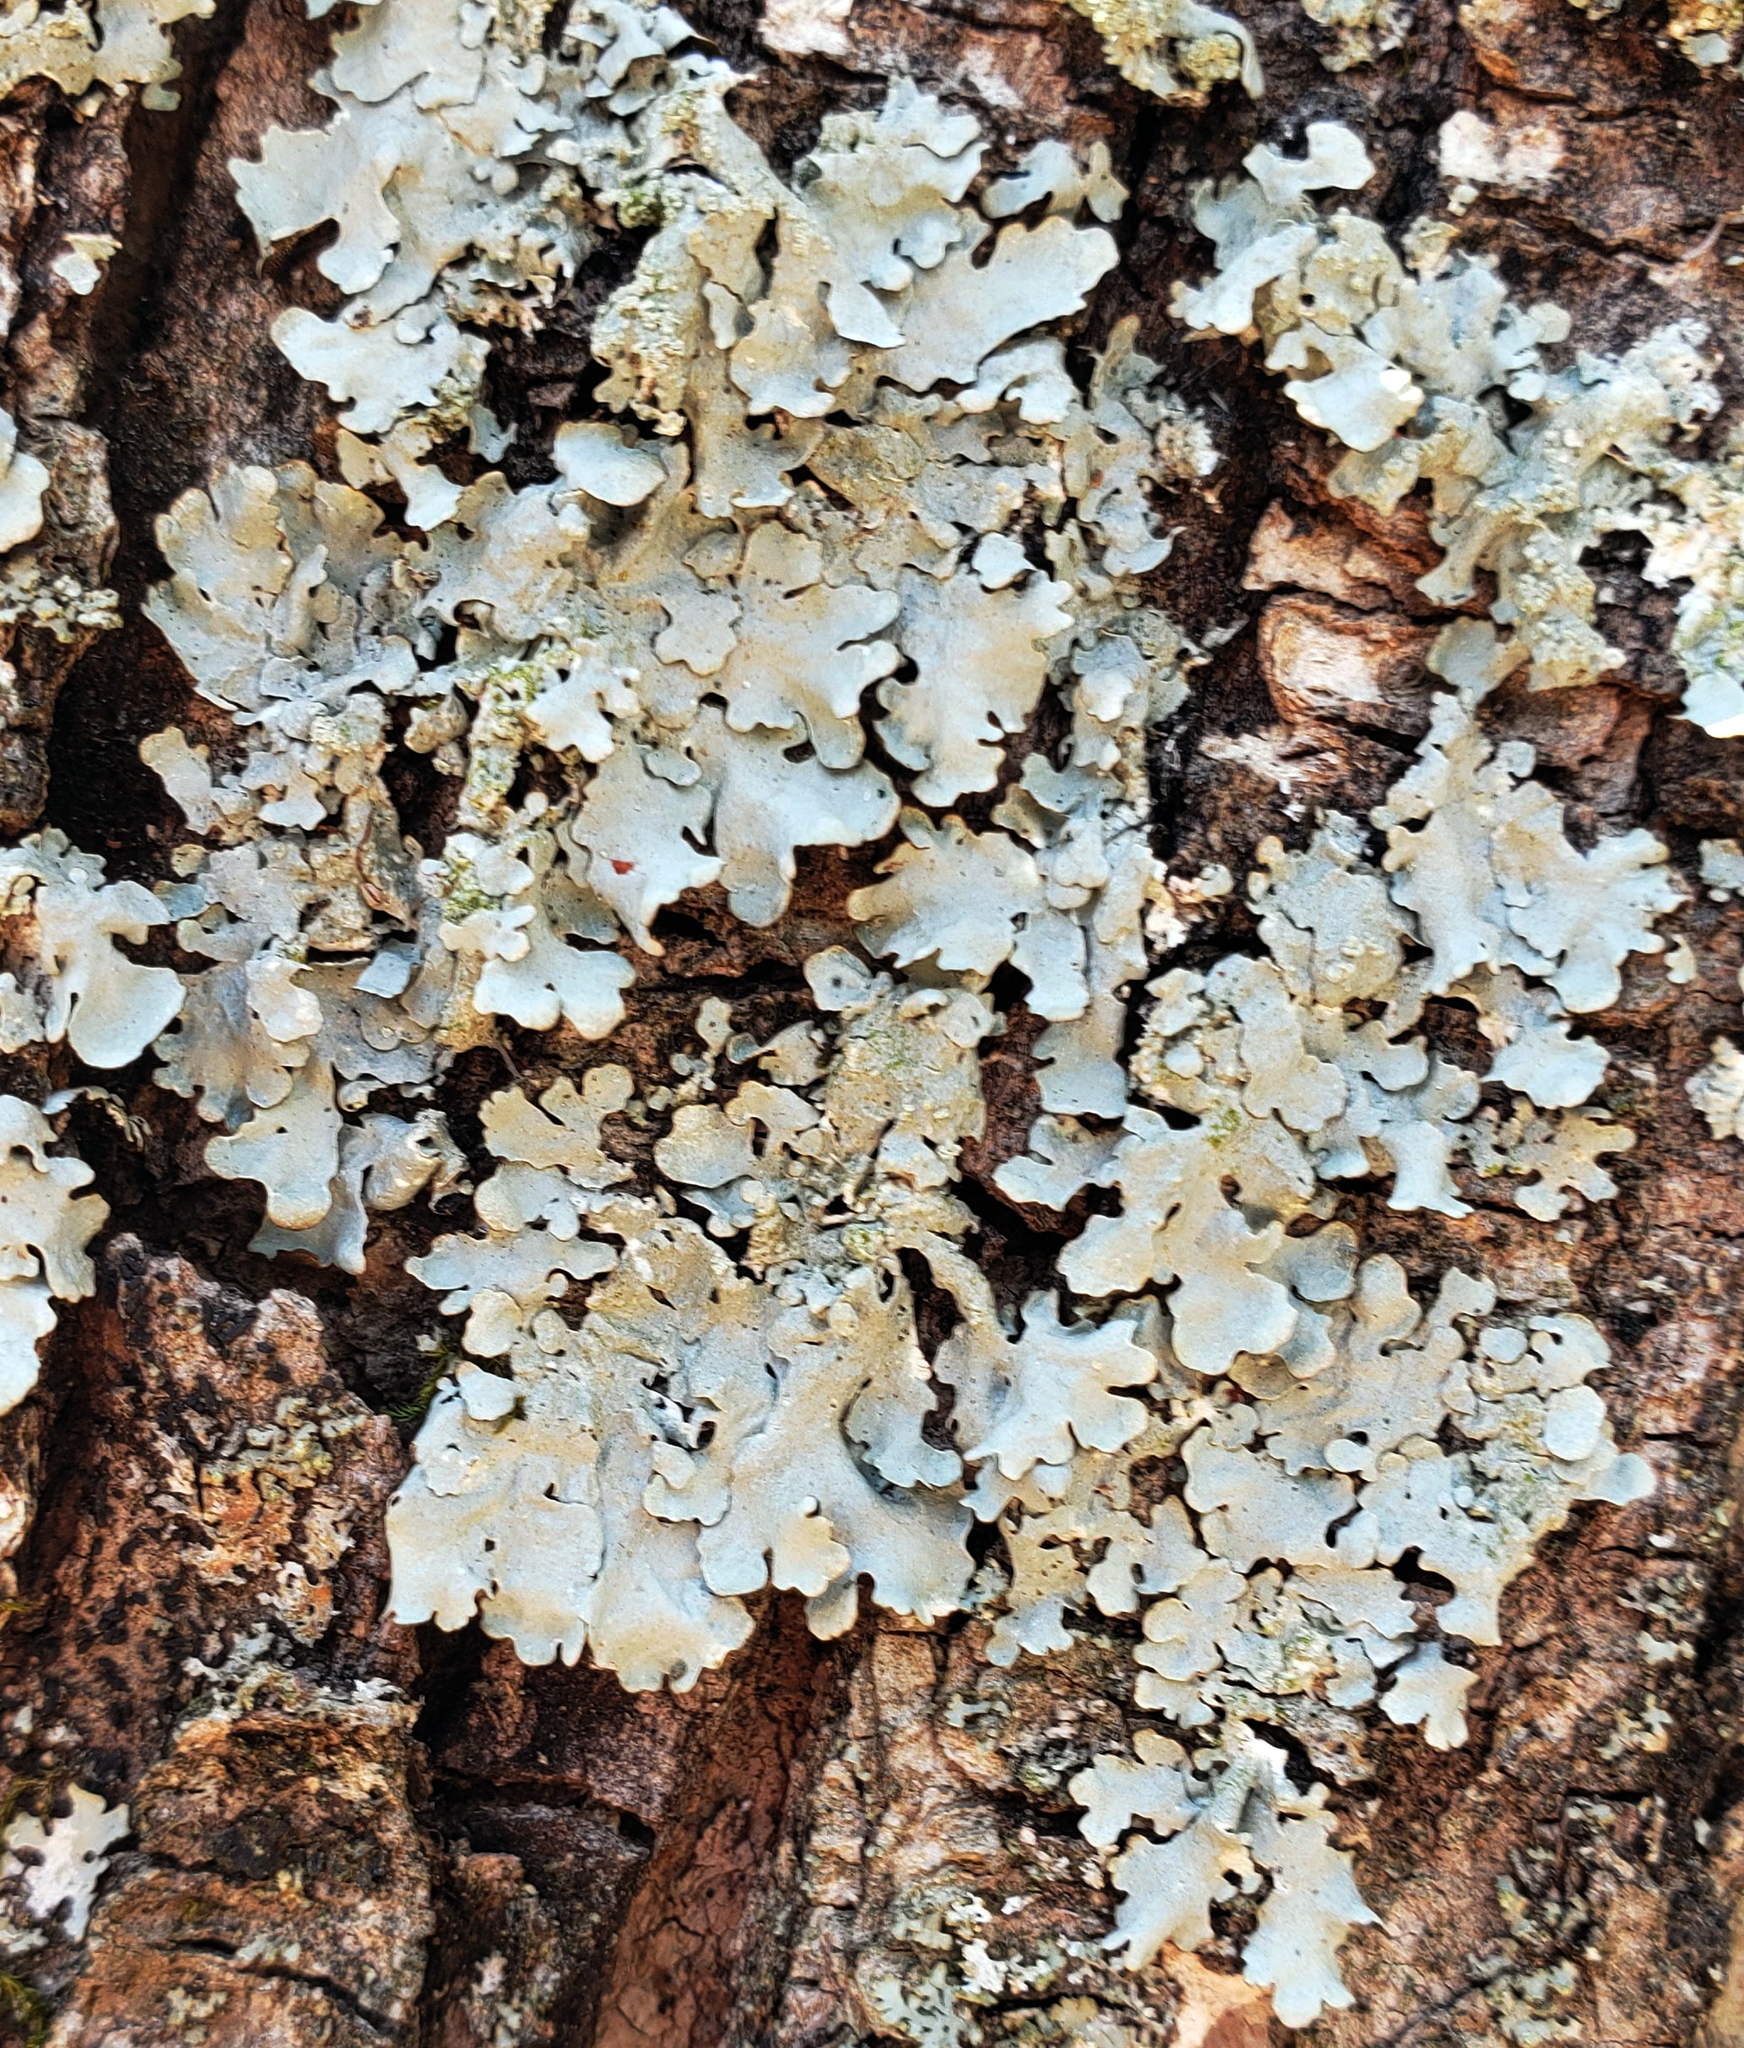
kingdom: Fungi
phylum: Ascomycota
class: Lecanoromycetes
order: Lecanorales
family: Parmeliaceae
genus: Myelochroa
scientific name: Myelochroa aurulenta
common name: Powdery axil-bristle lichen
